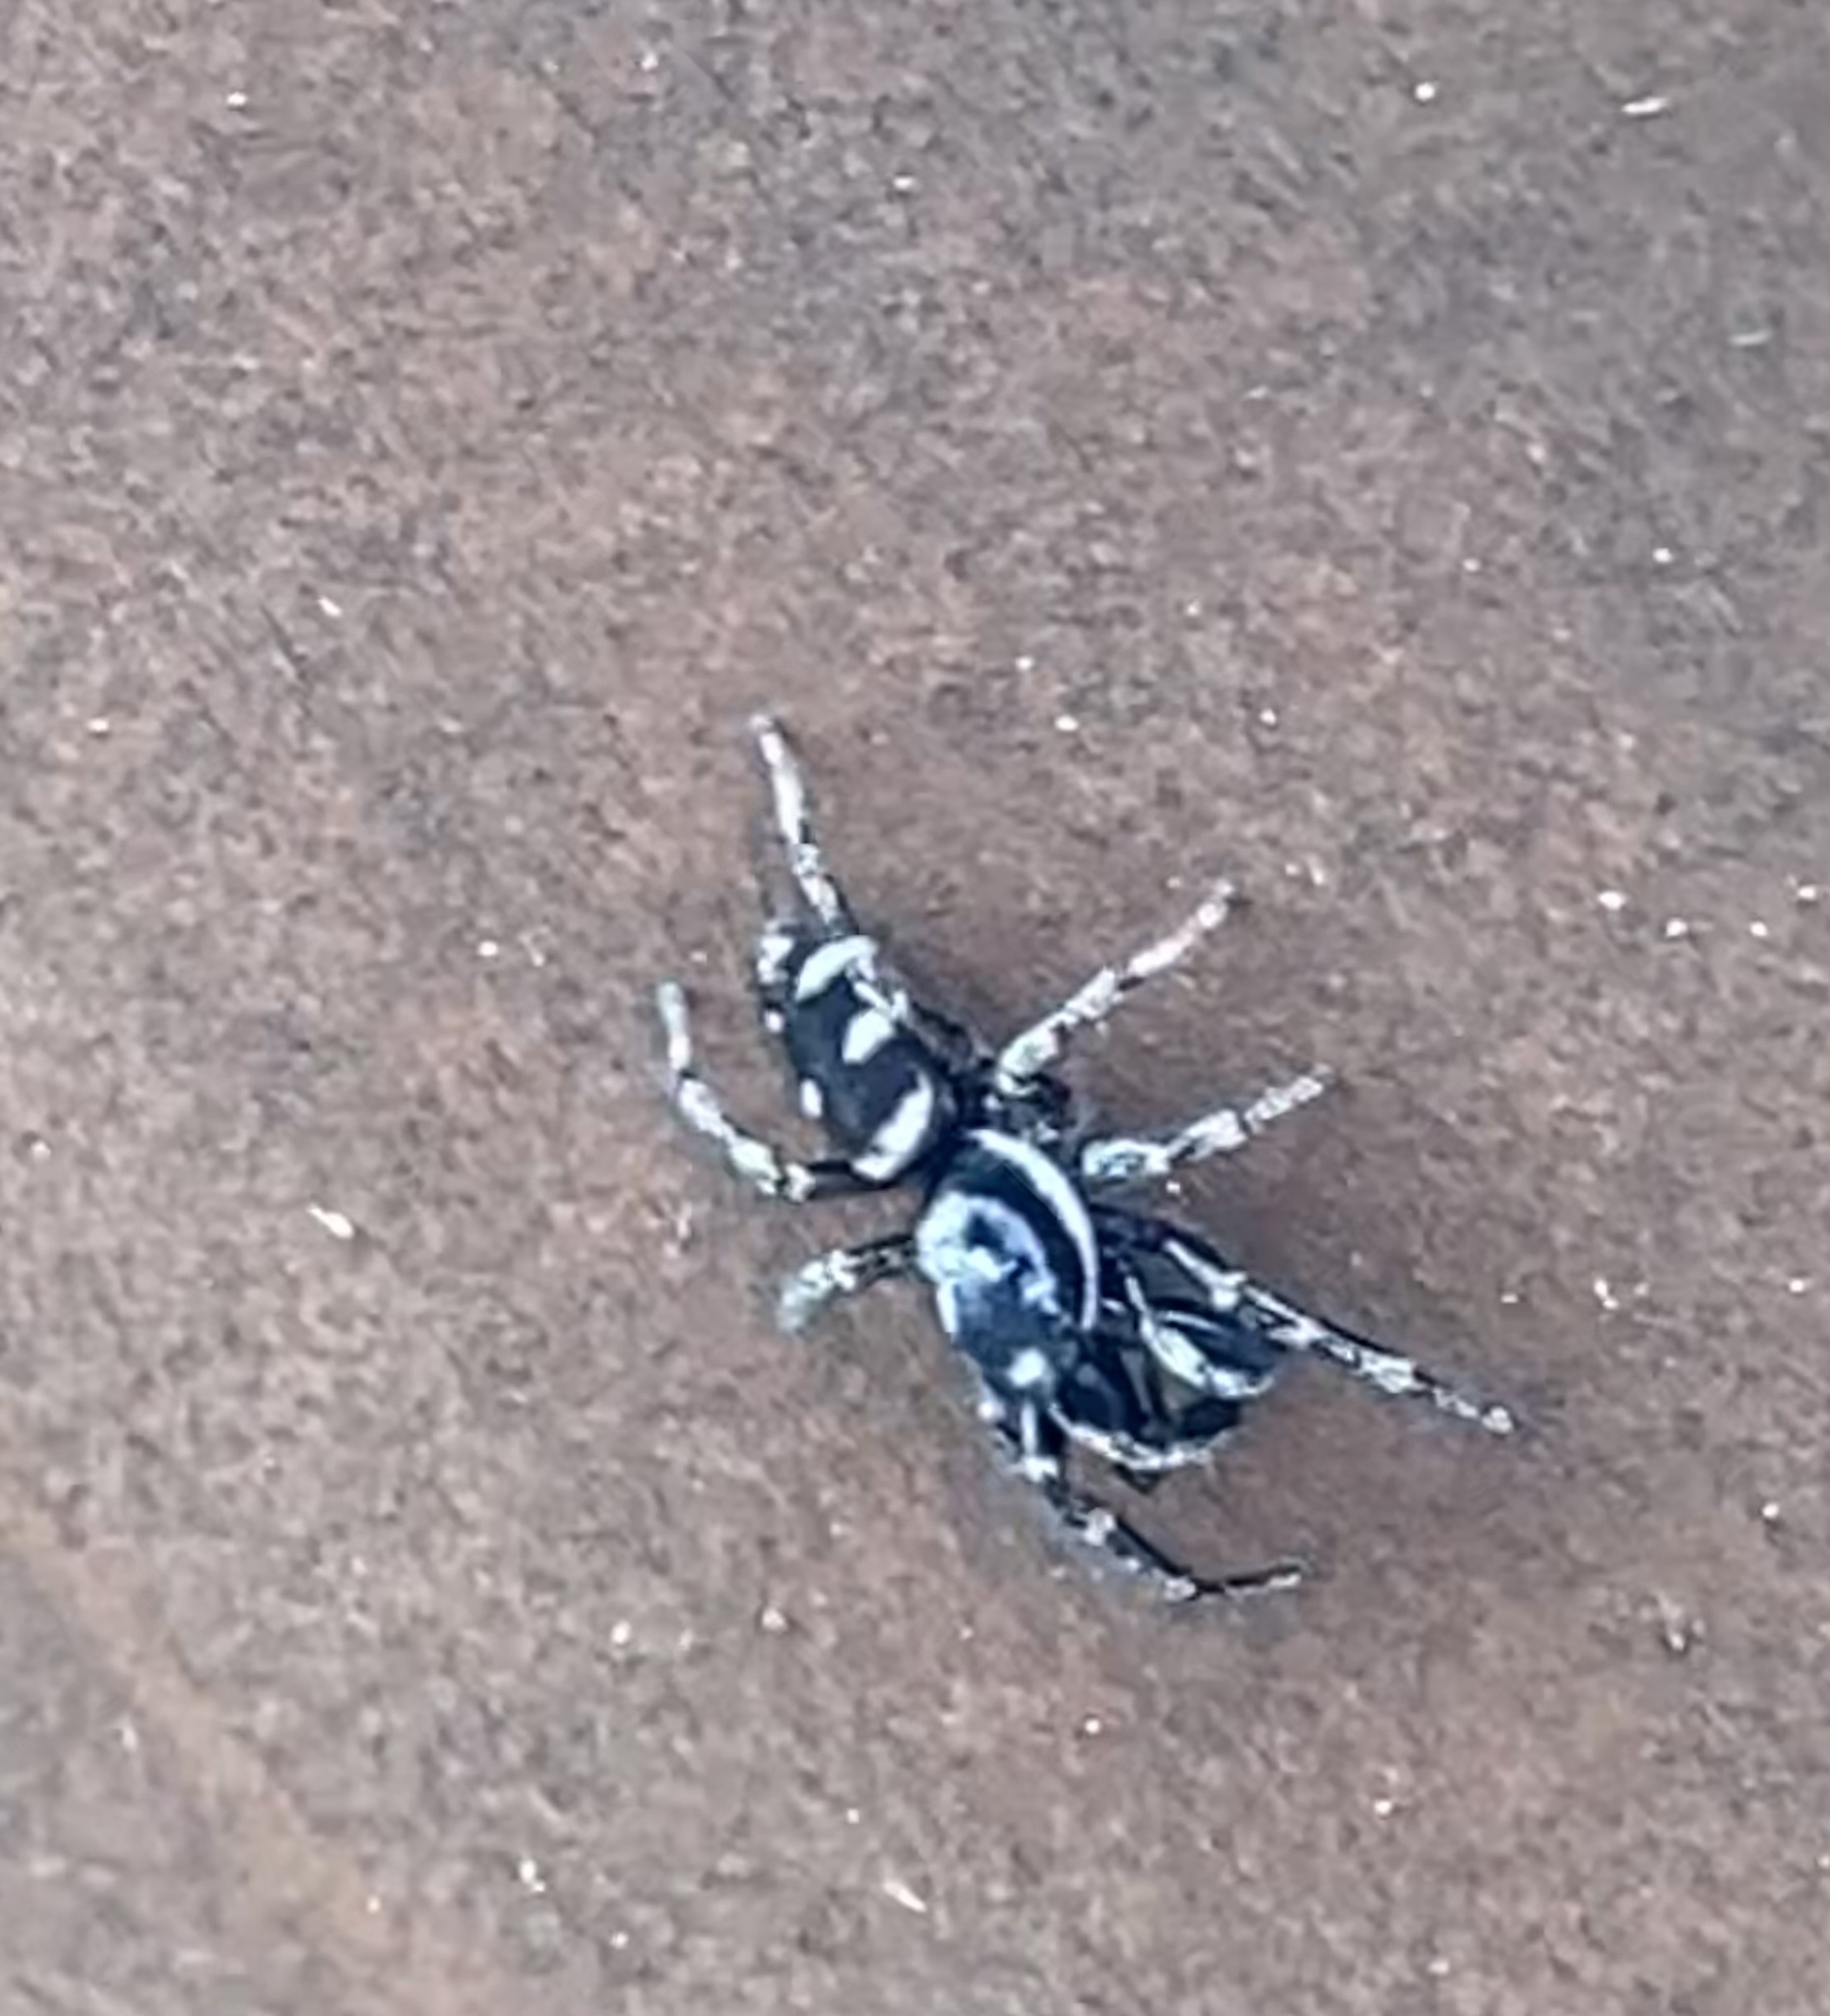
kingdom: Animalia
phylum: Arthropoda
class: Arachnida
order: Araneae
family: Salticidae
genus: Salticus
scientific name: Salticus scenicus
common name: Zebra jumper
